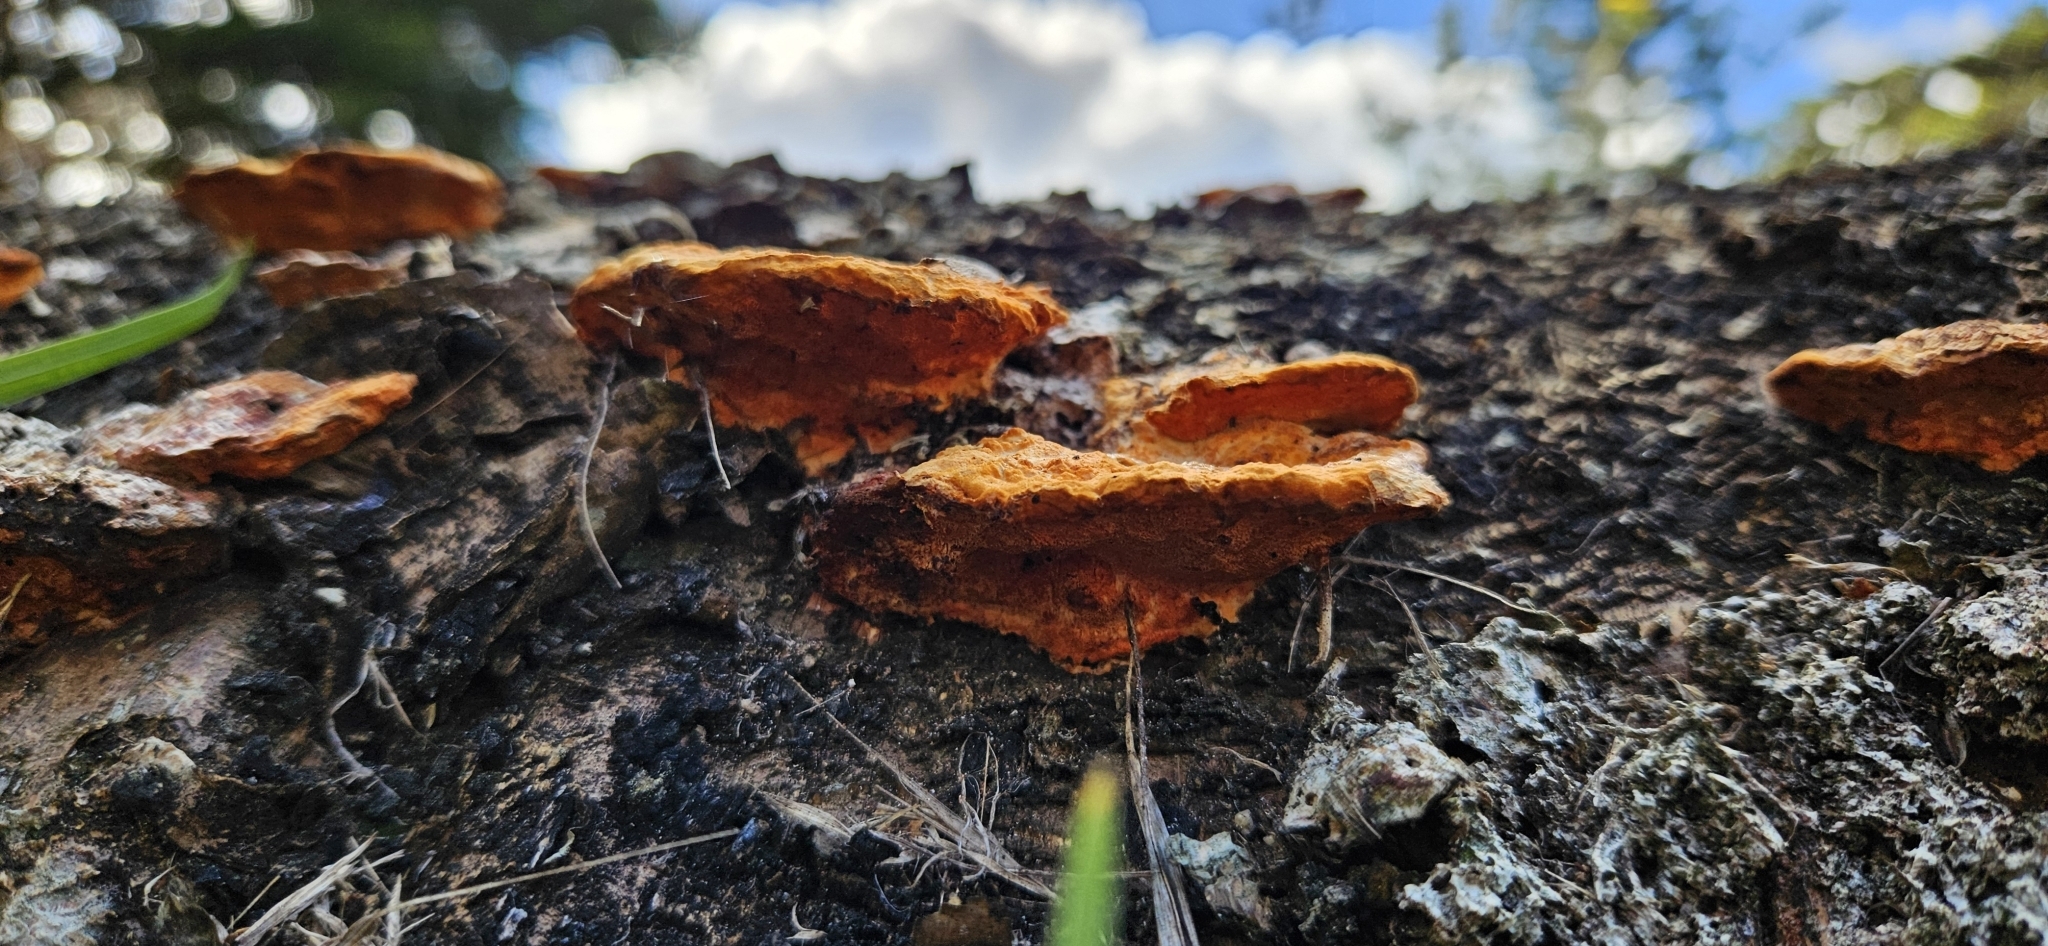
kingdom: Fungi
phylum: Basidiomycota
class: Agaricomycetes
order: Polyporales
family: Polyporaceae
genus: Trametes
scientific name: Trametes coccinea
